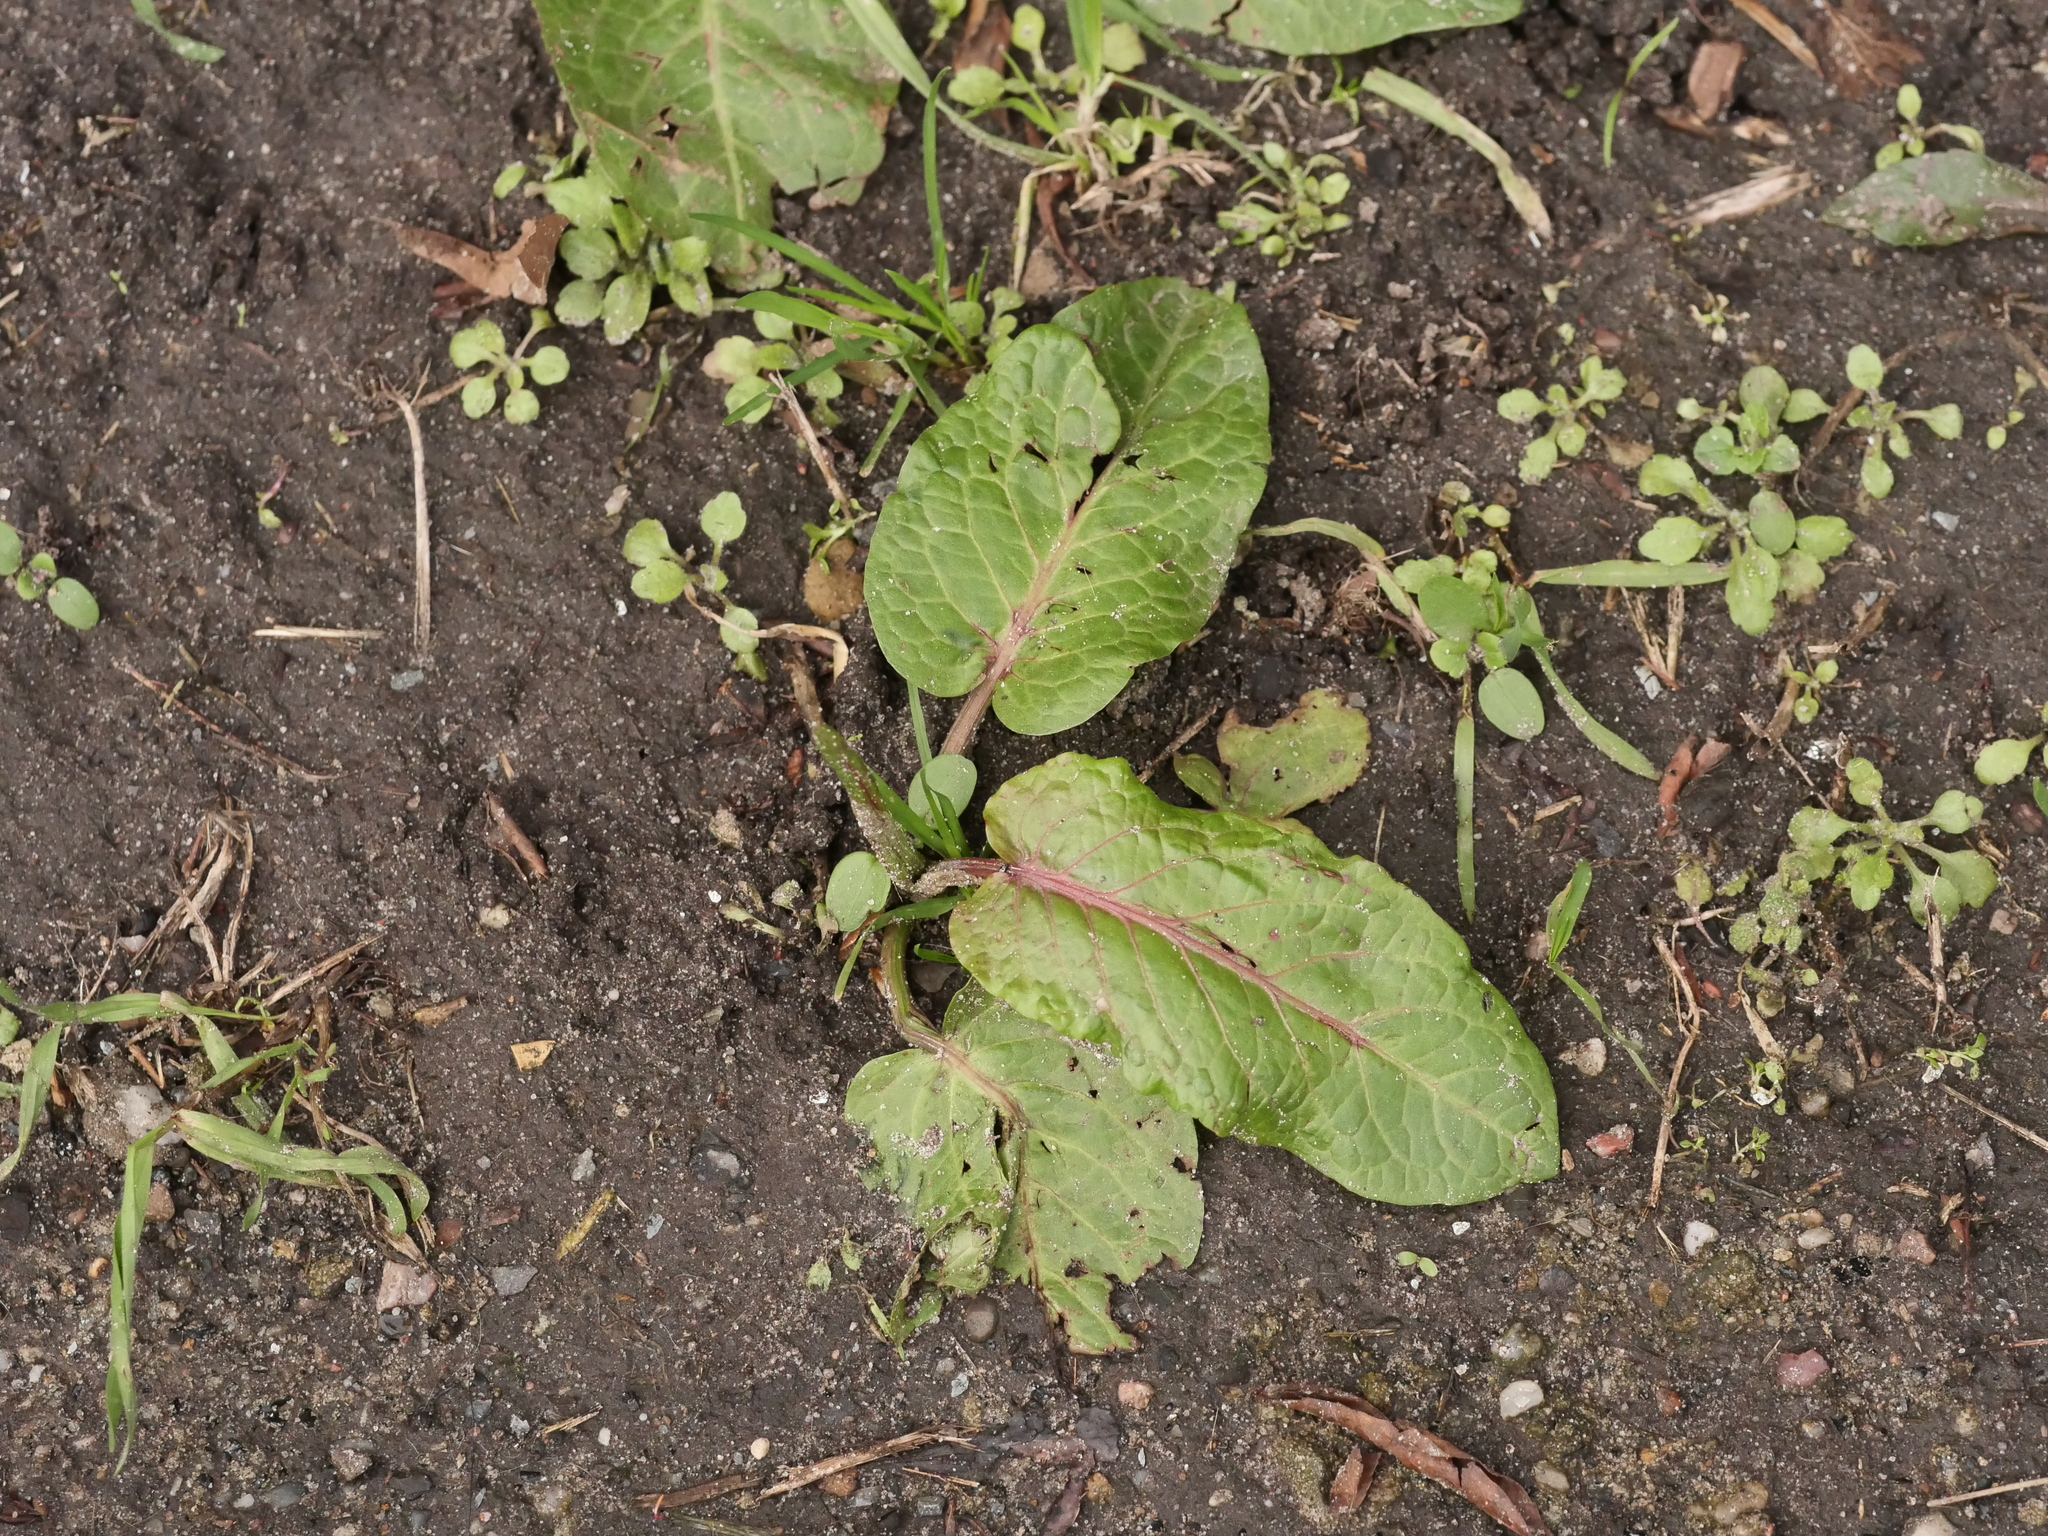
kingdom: Plantae
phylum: Tracheophyta
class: Magnoliopsida
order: Caryophyllales
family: Polygonaceae
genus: Rumex
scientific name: Rumex obtusifolius
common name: Bitter dock
